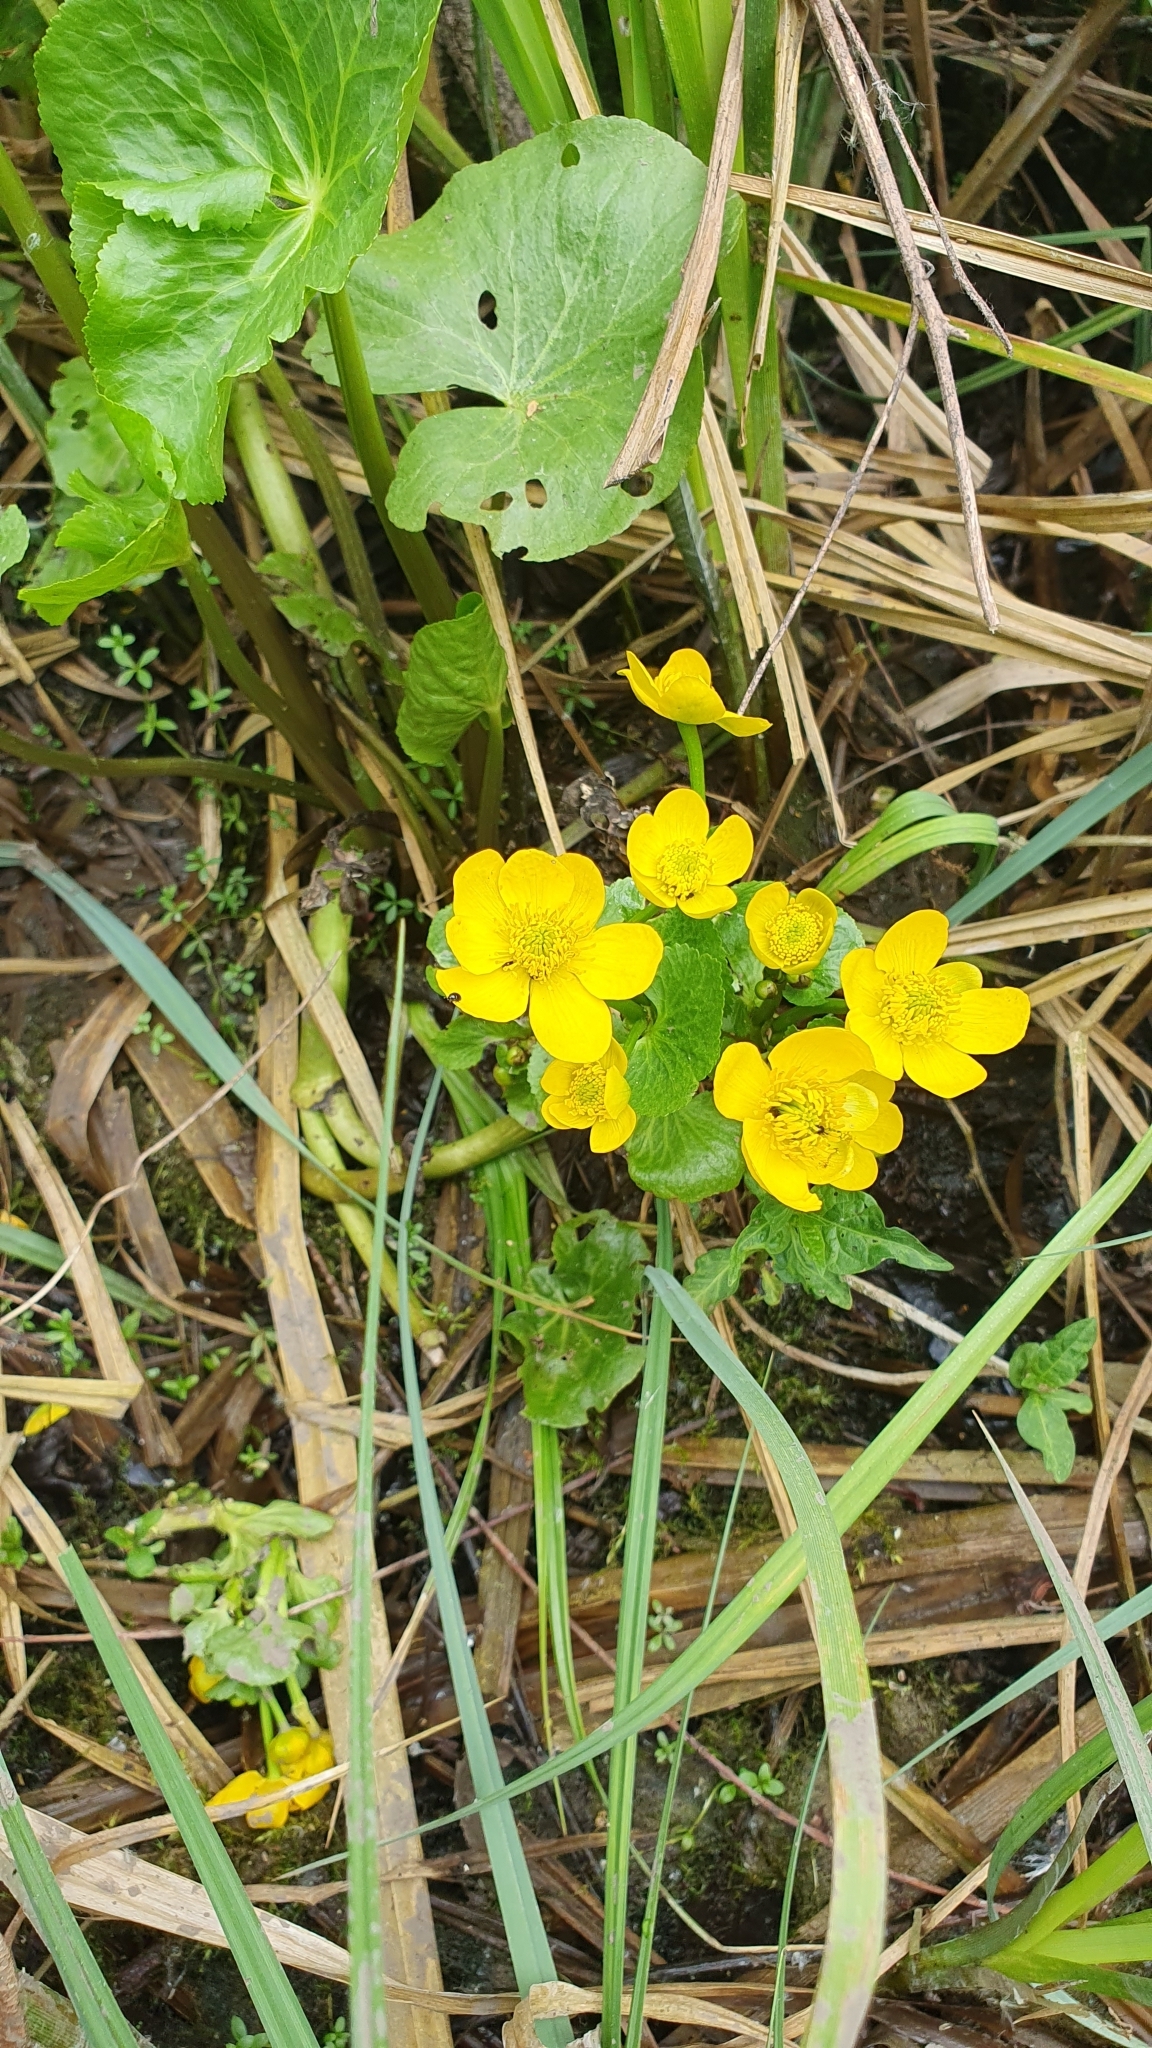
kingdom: Plantae
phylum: Tracheophyta
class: Magnoliopsida
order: Ranunculales
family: Ranunculaceae
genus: Caltha
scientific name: Caltha palustris
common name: Marsh marigold
